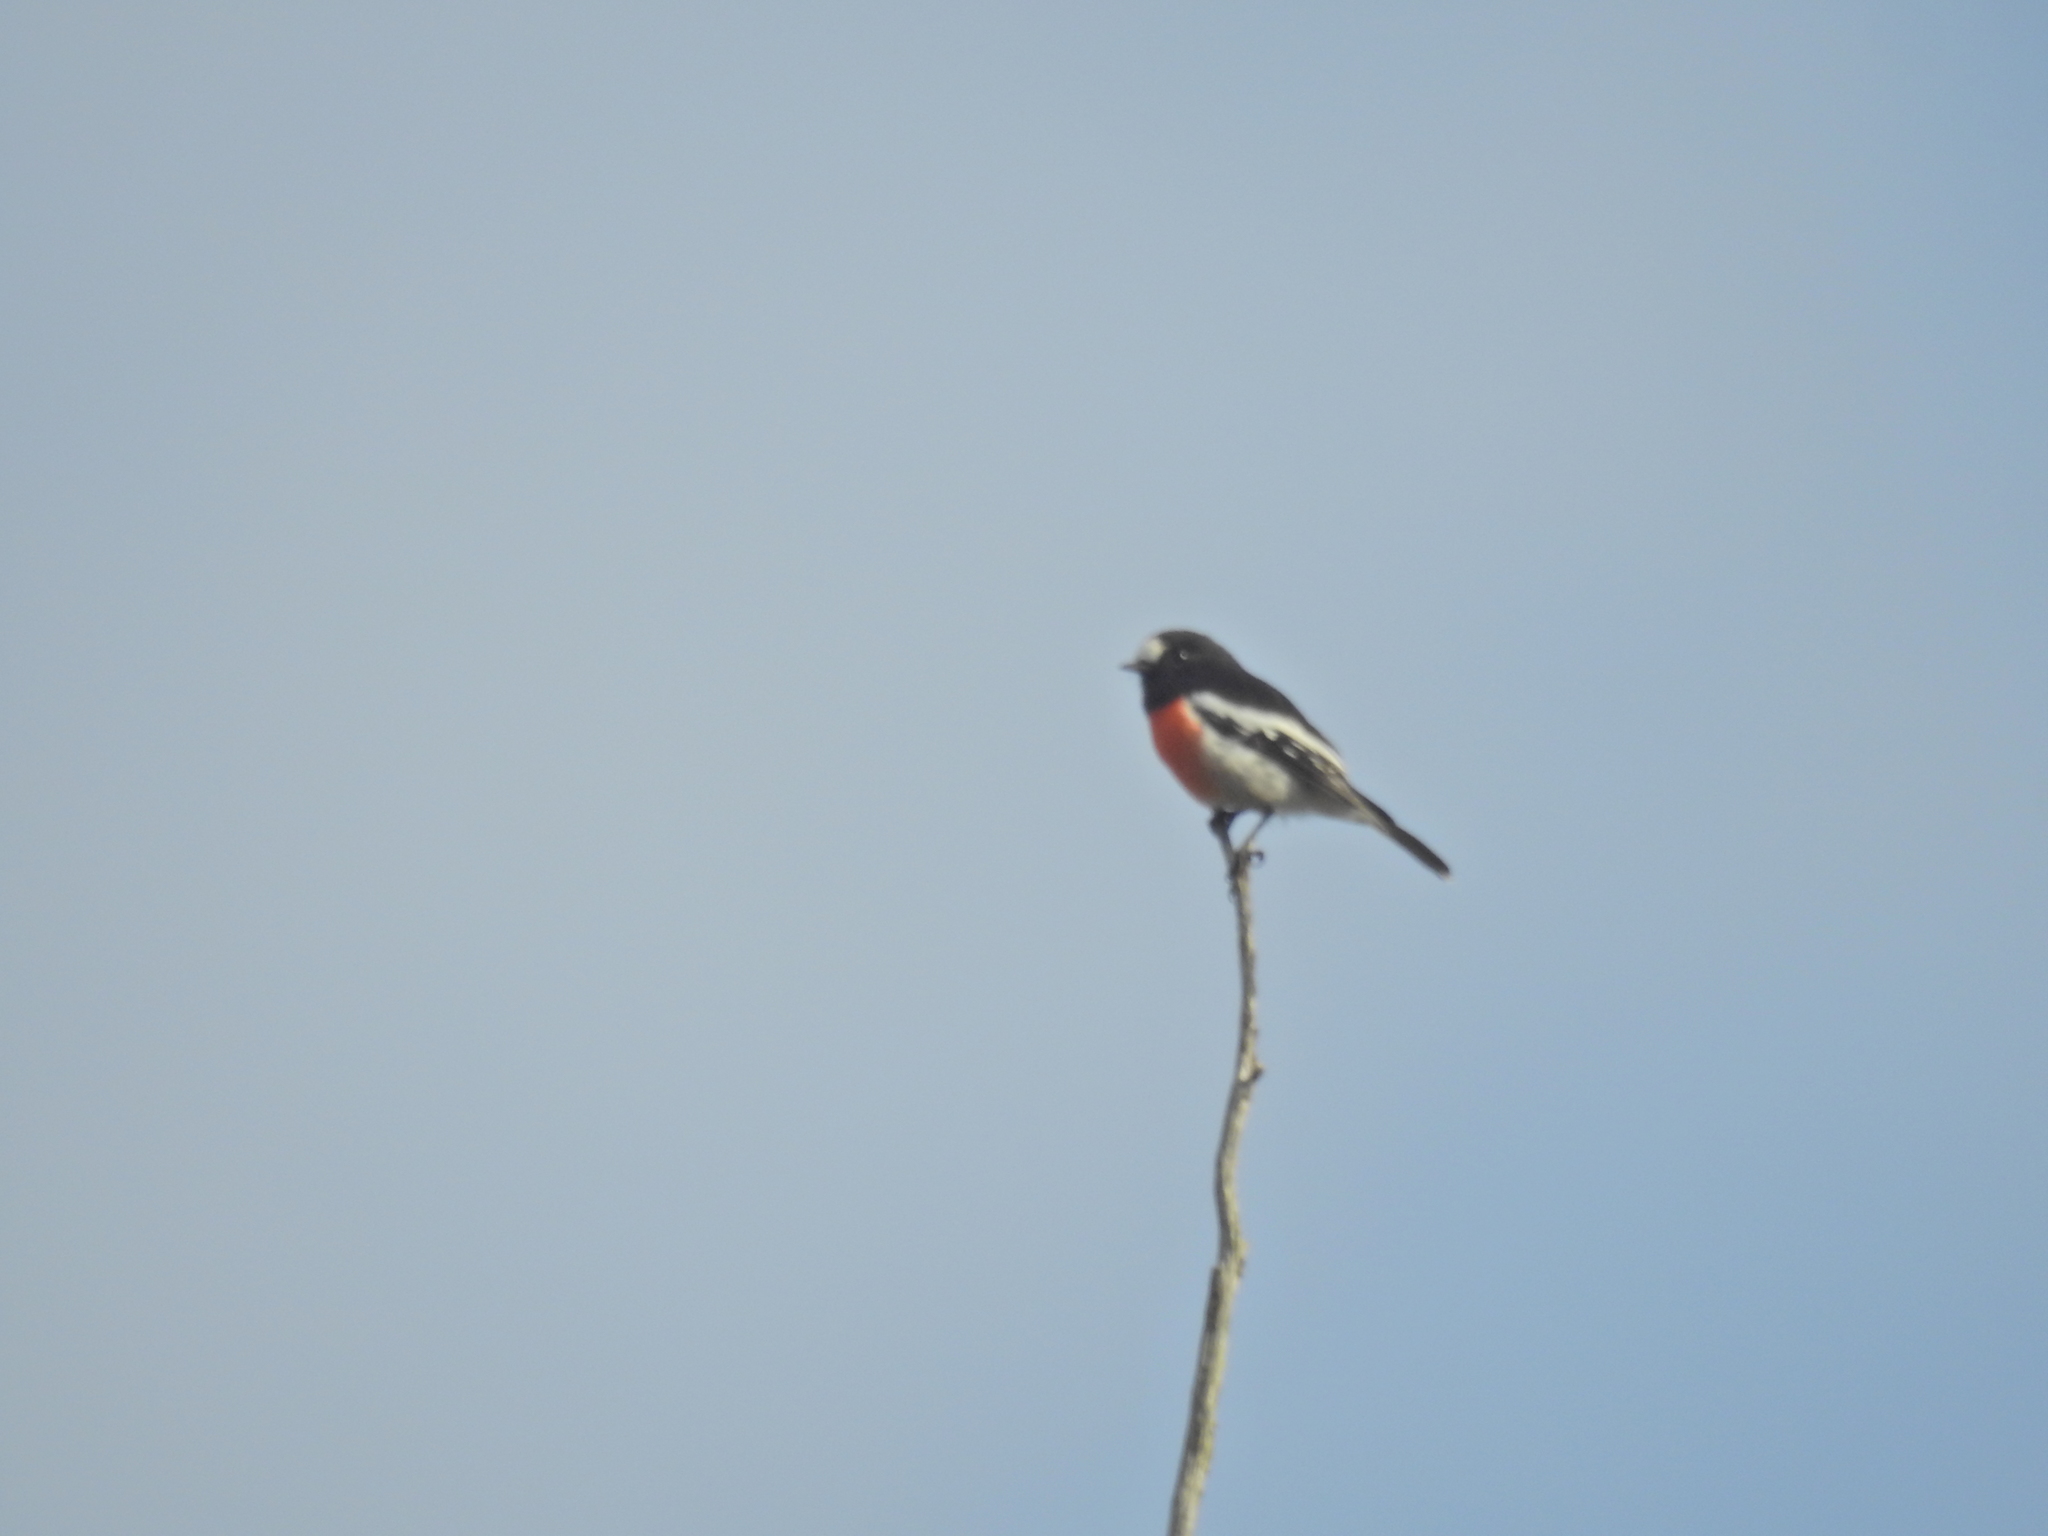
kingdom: Animalia
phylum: Chordata
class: Aves
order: Passeriformes
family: Petroicidae
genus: Petroica
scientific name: Petroica boodang
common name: Scarlet robin
